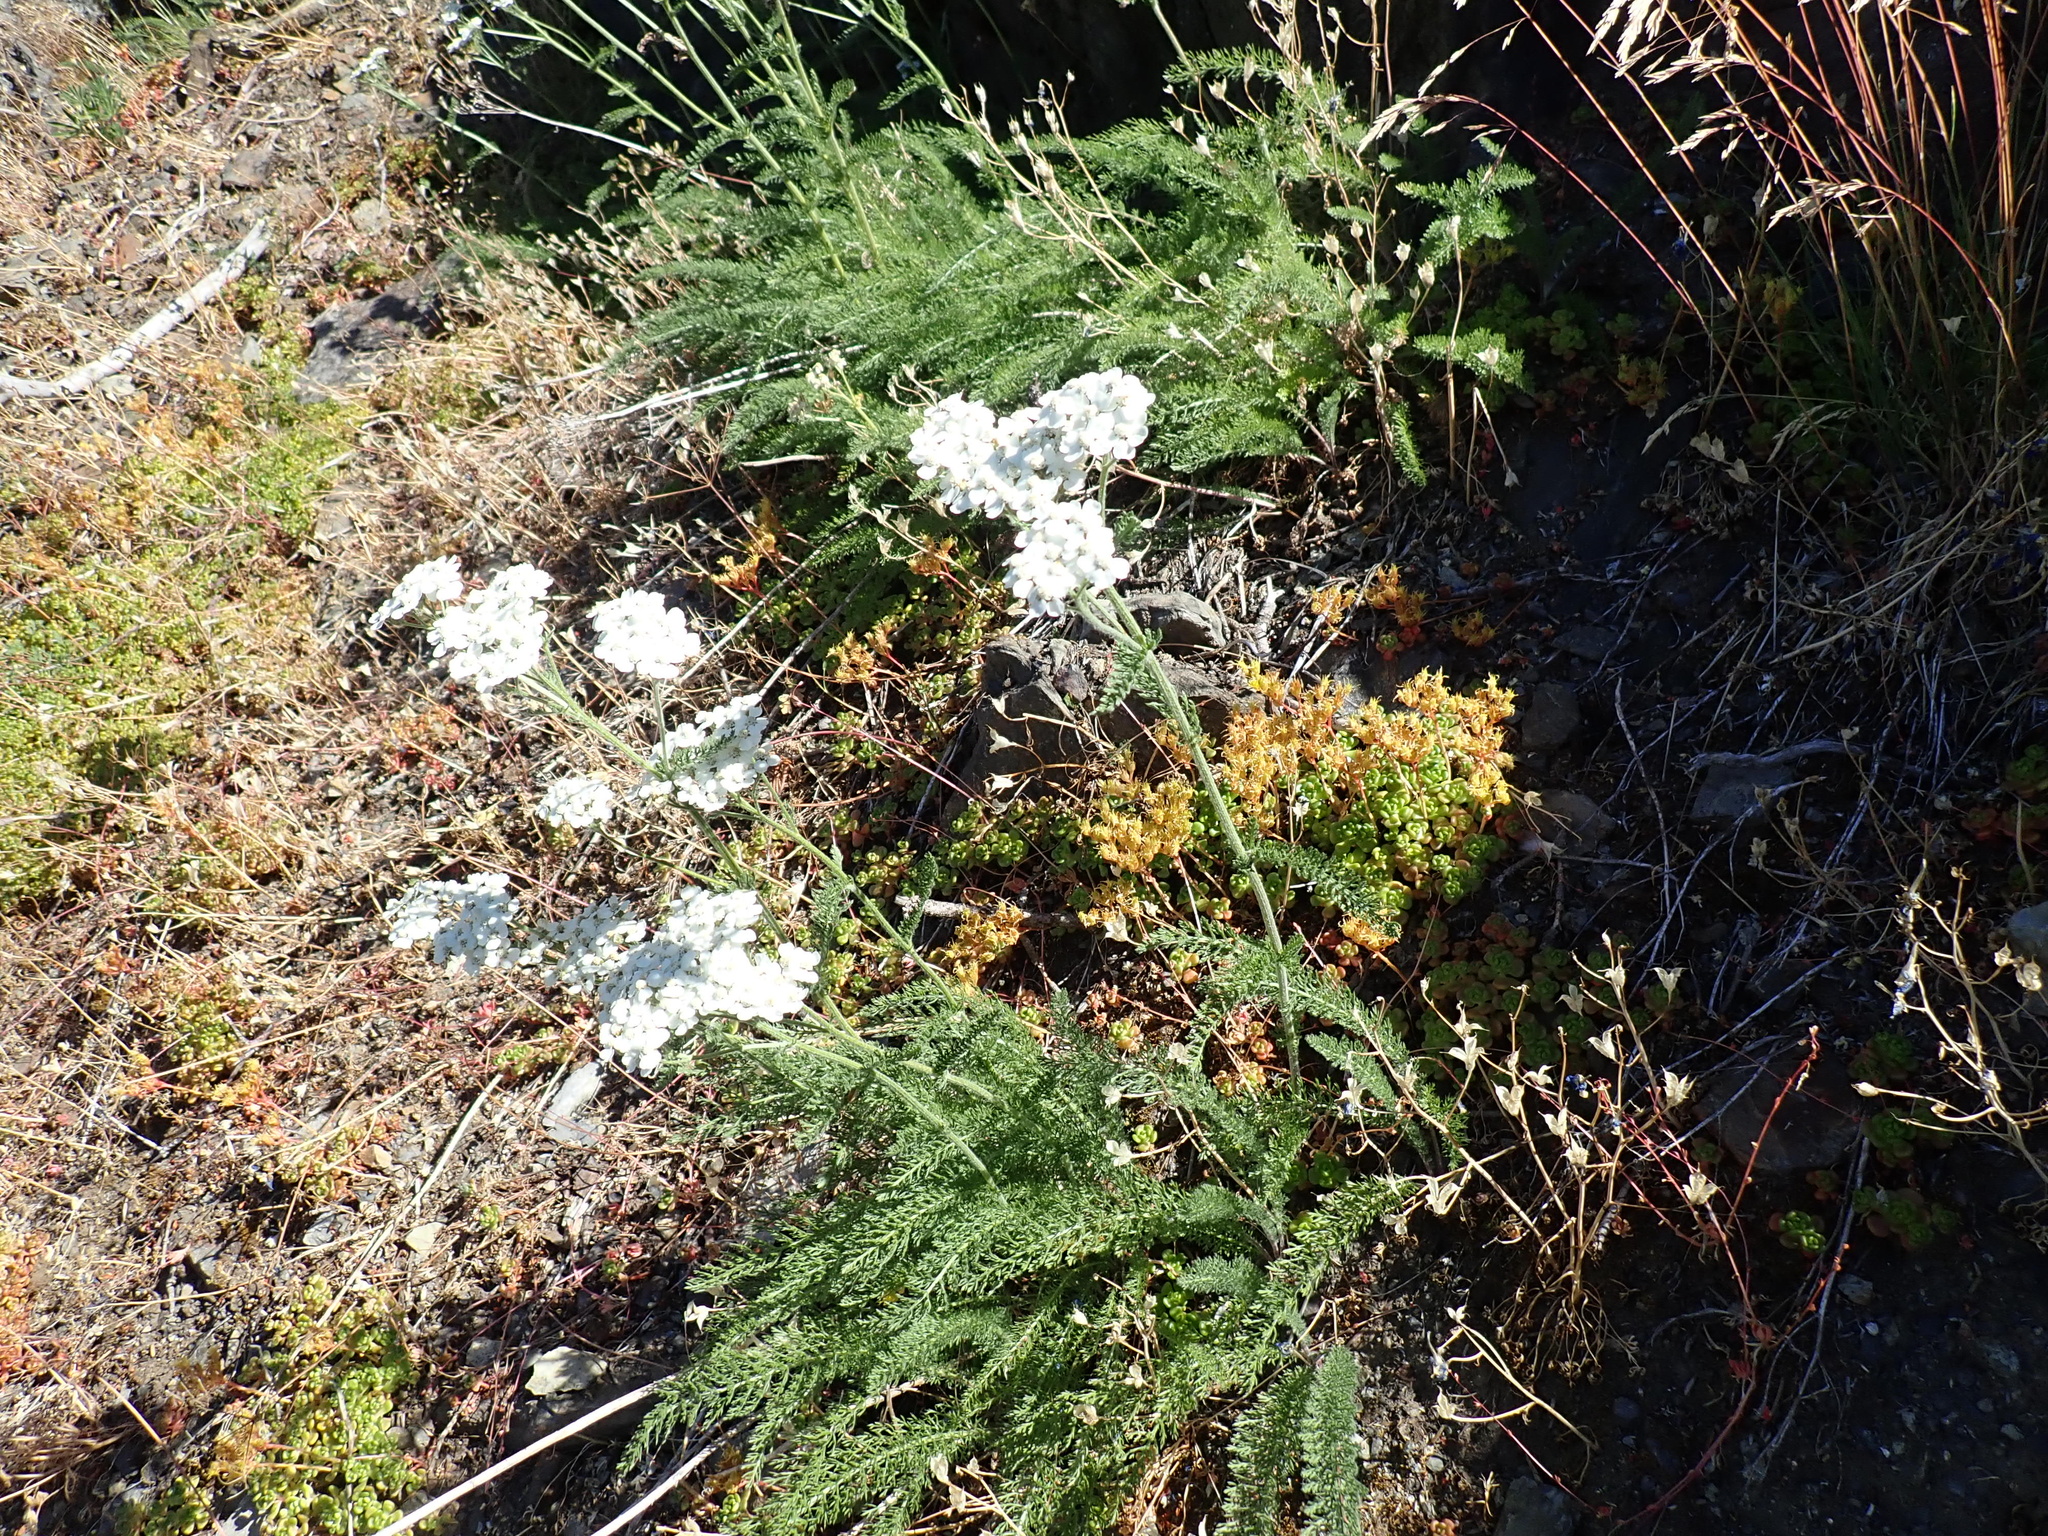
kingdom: Plantae
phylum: Tracheophyta
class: Magnoliopsida
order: Asterales
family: Asteraceae
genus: Achillea
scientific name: Achillea millefolium
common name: Yarrow
